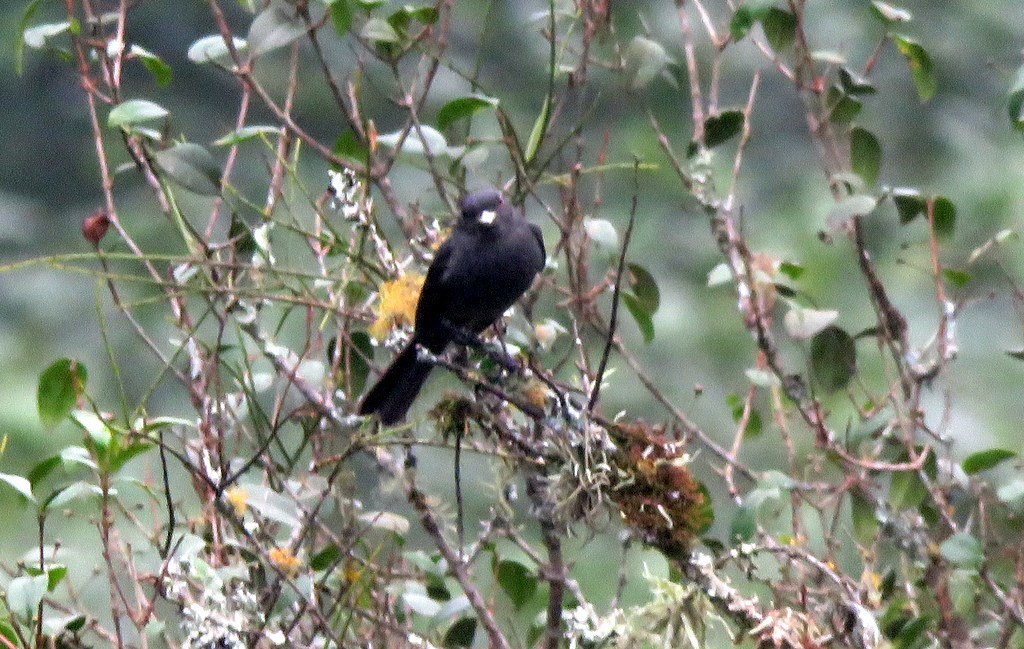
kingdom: Animalia
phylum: Chordata
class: Aves
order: Passeriformes
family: Tyrannidae
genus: Knipolegus
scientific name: Knipolegus cabanisi
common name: Plumbeous tyrant
